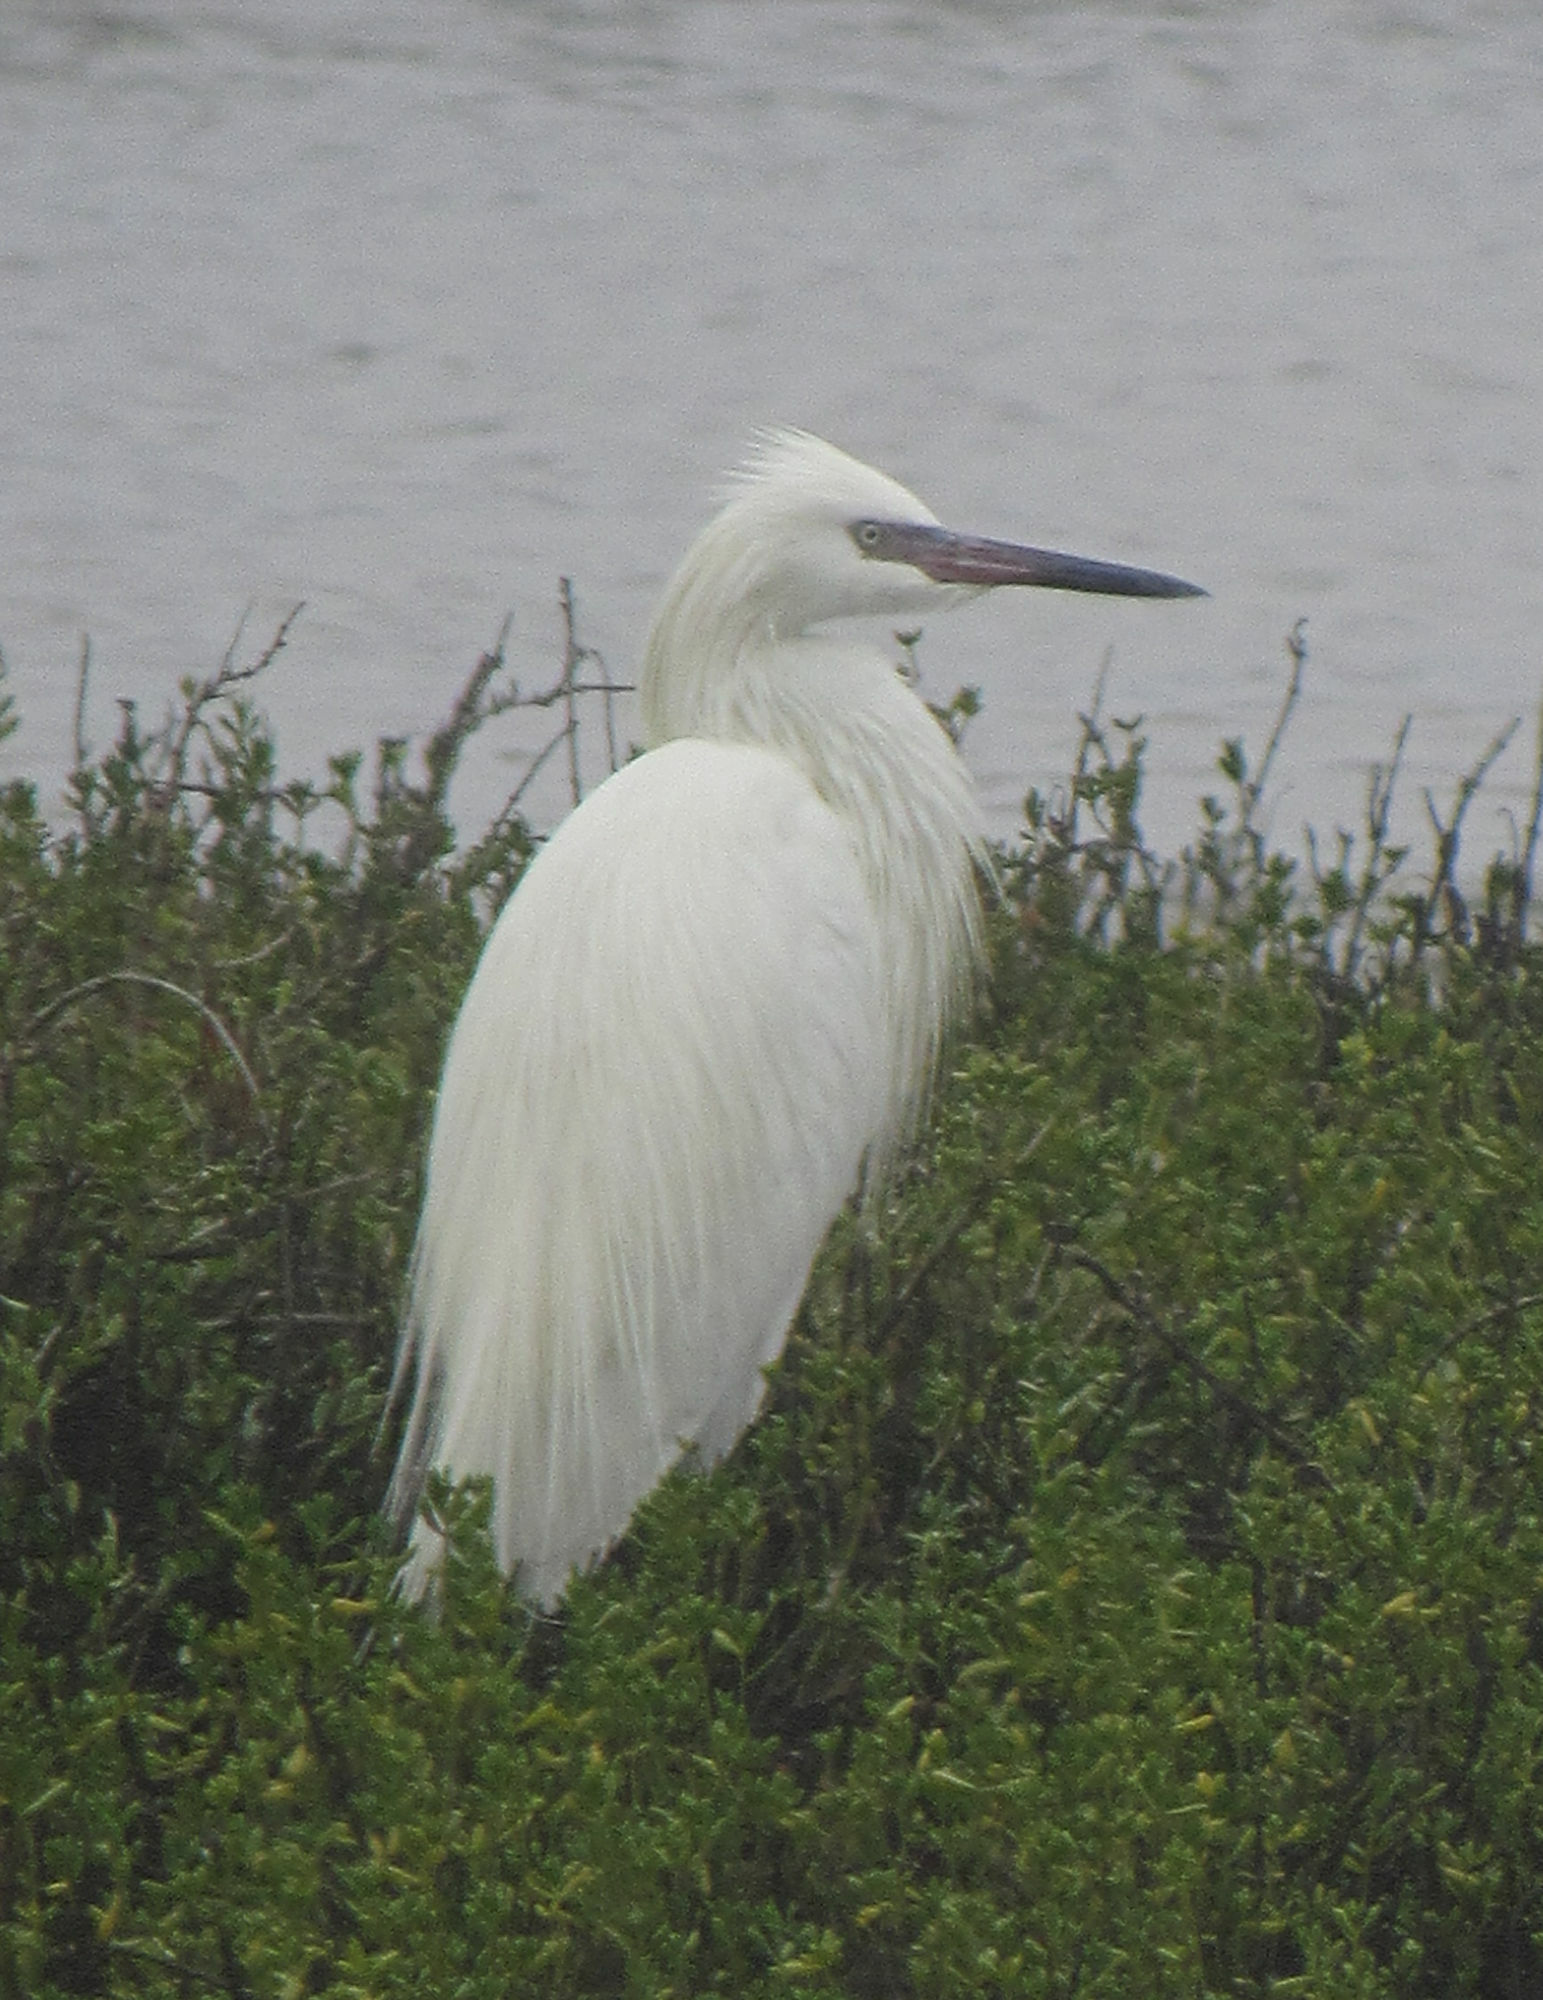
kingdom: Animalia
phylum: Chordata
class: Aves
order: Pelecaniformes
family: Ardeidae
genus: Egretta
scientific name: Egretta rufescens
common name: Reddish egret
